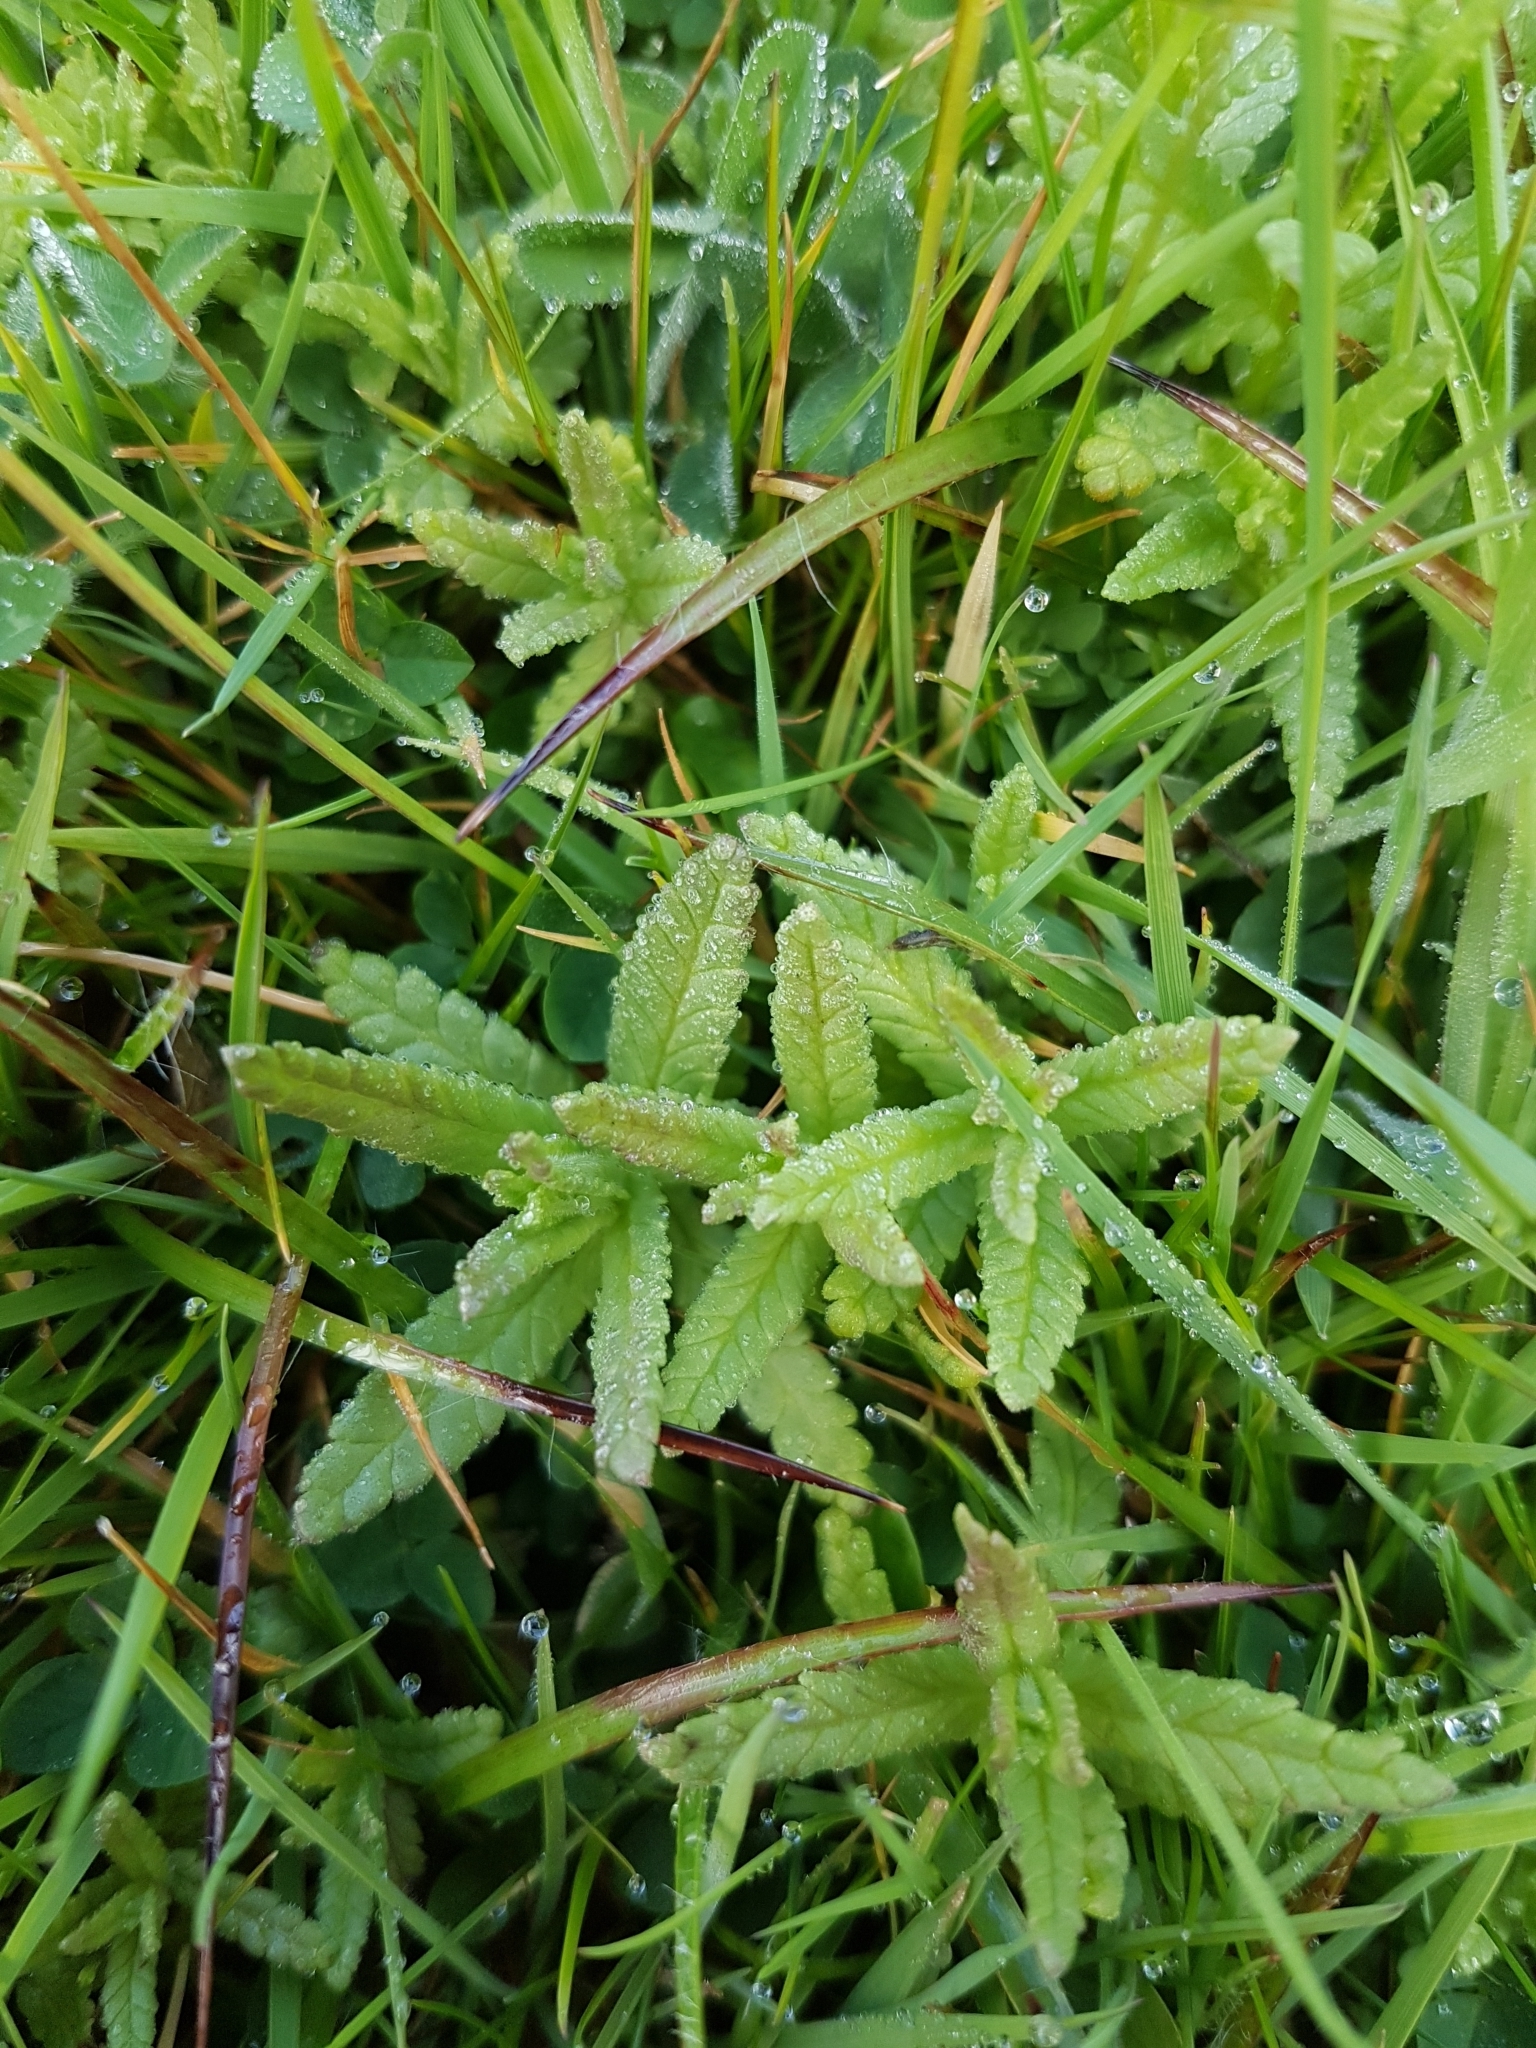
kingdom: Plantae
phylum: Tracheophyta
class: Magnoliopsida
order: Lamiales
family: Orobanchaceae
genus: Rhinanthus
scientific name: Rhinanthus minor
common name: Yellow-rattle
